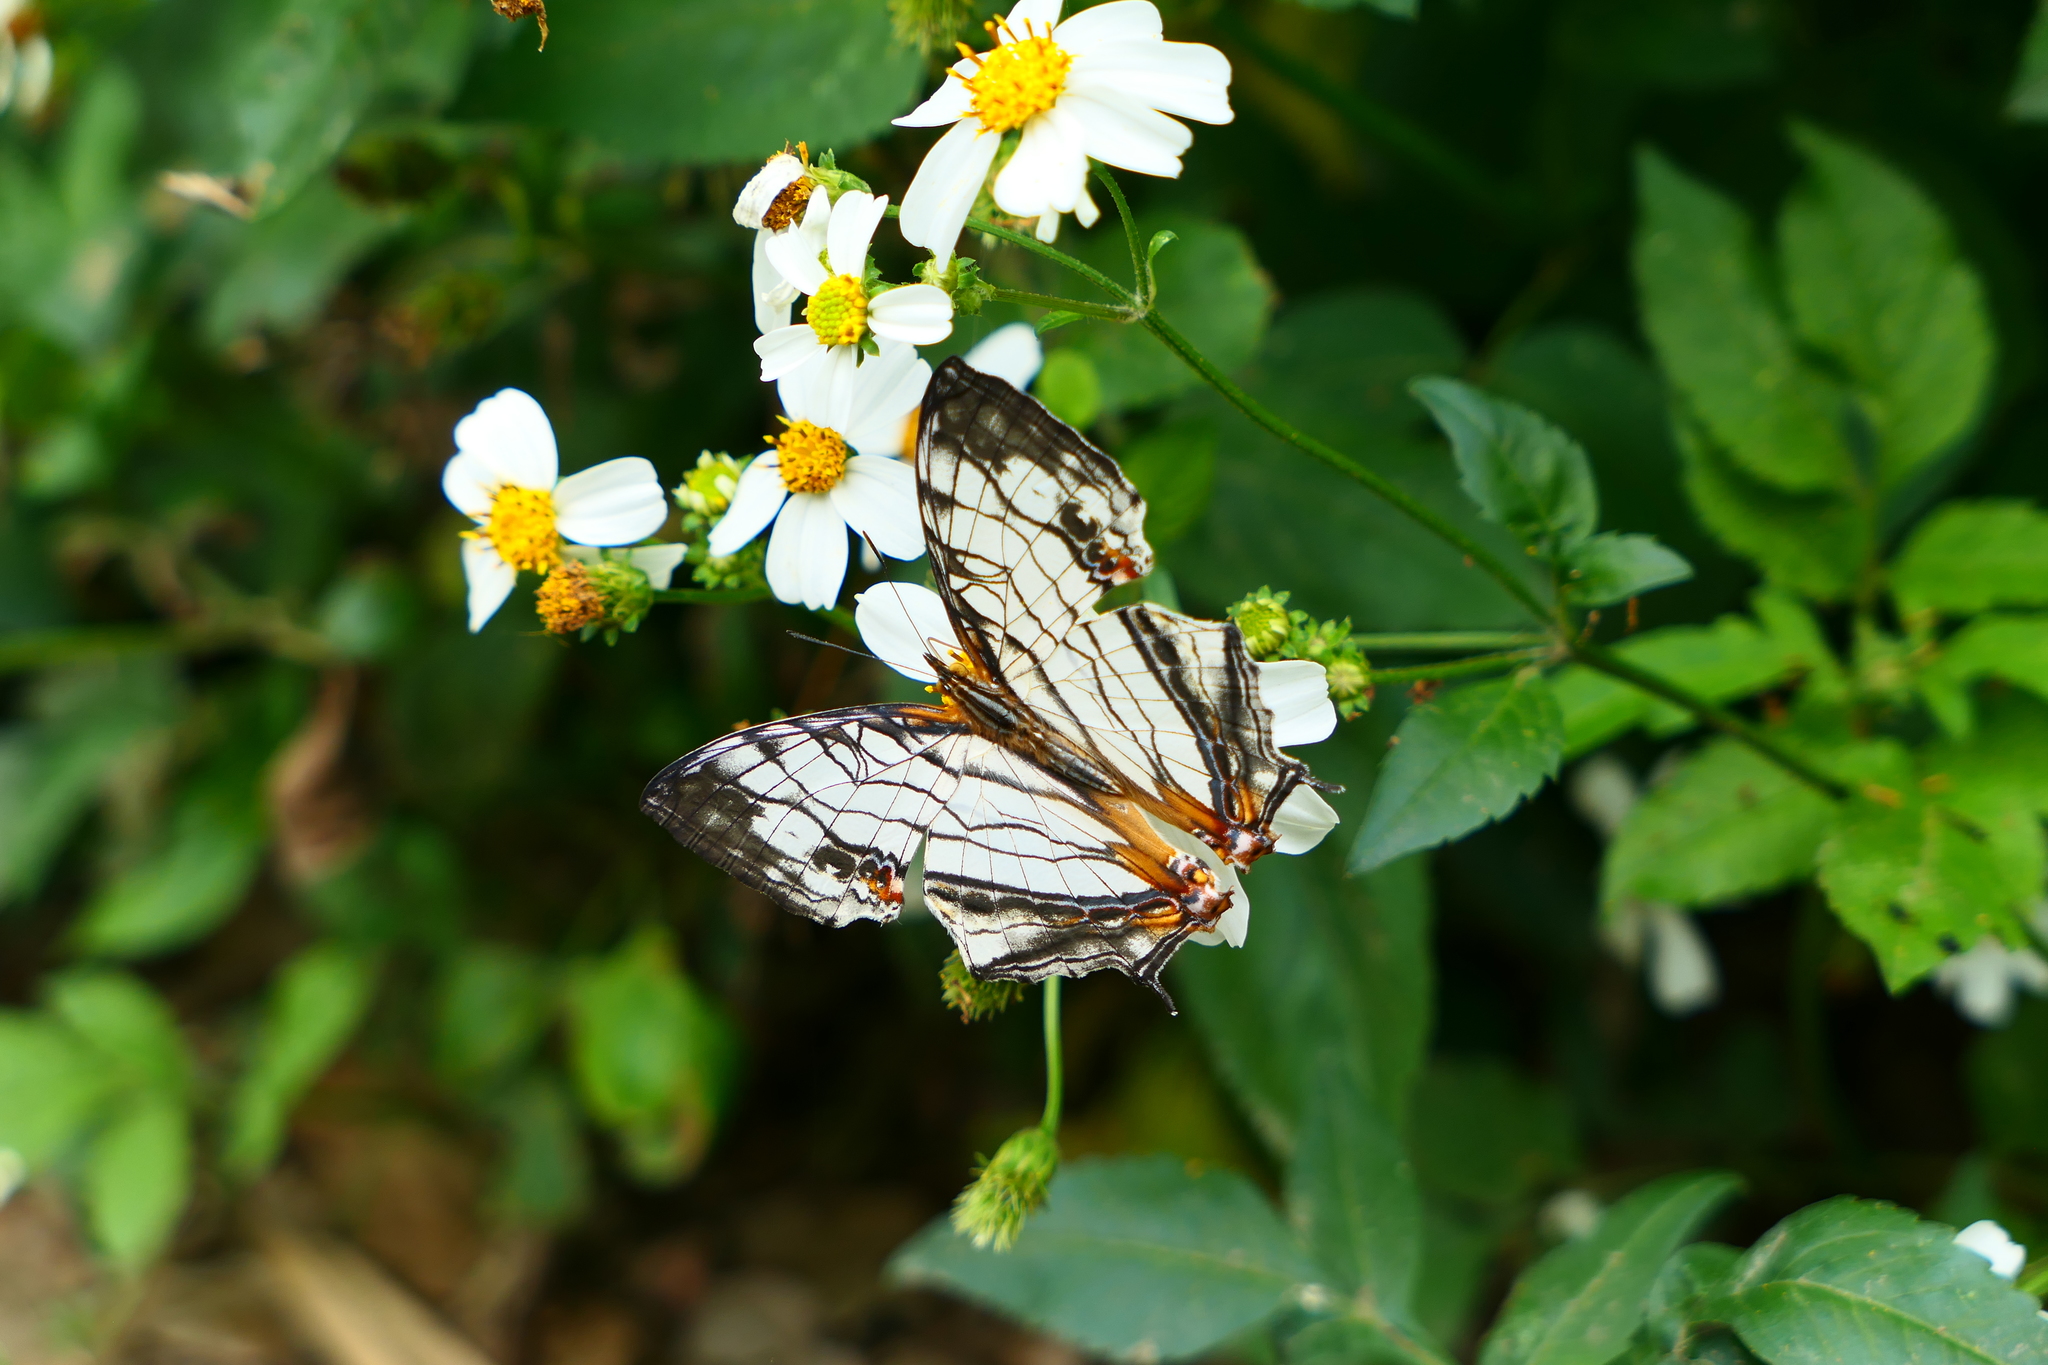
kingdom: Animalia
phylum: Arthropoda
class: Insecta
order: Lepidoptera
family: Nymphalidae
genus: Cyrestis
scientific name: Cyrestis thyodamas
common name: Common mapwing
